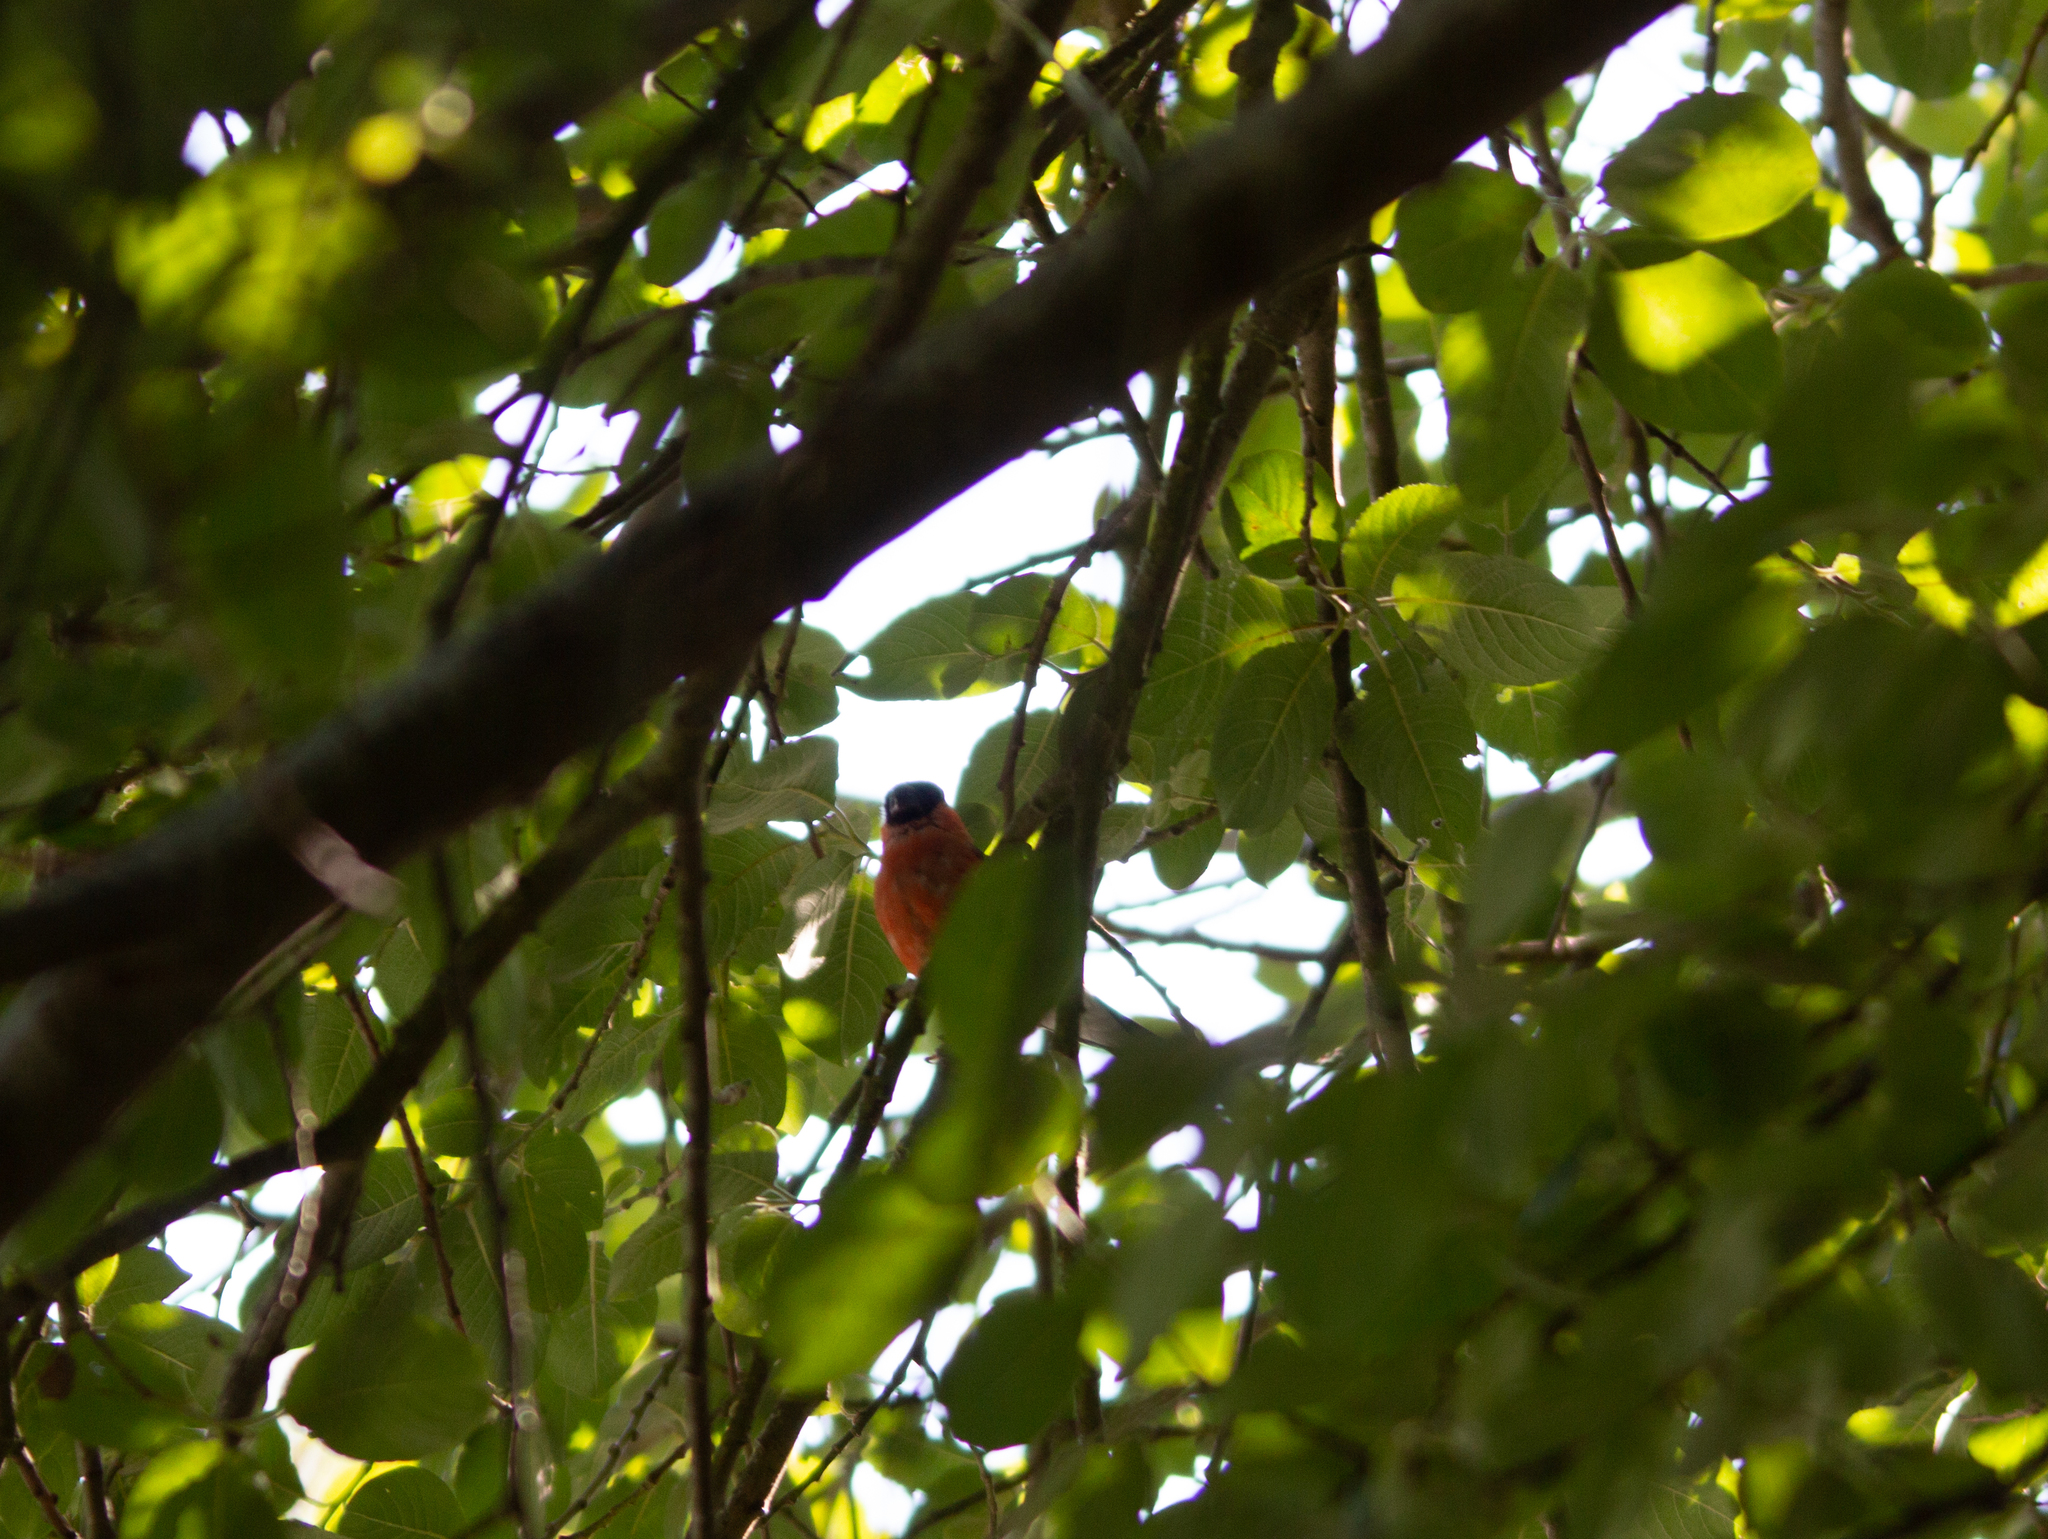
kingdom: Animalia
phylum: Chordata
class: Aves
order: Passeriformes
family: Fringillidae
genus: Pyrrhula
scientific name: Pyrrhula pyrrhula
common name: Eurasian bullfinch
